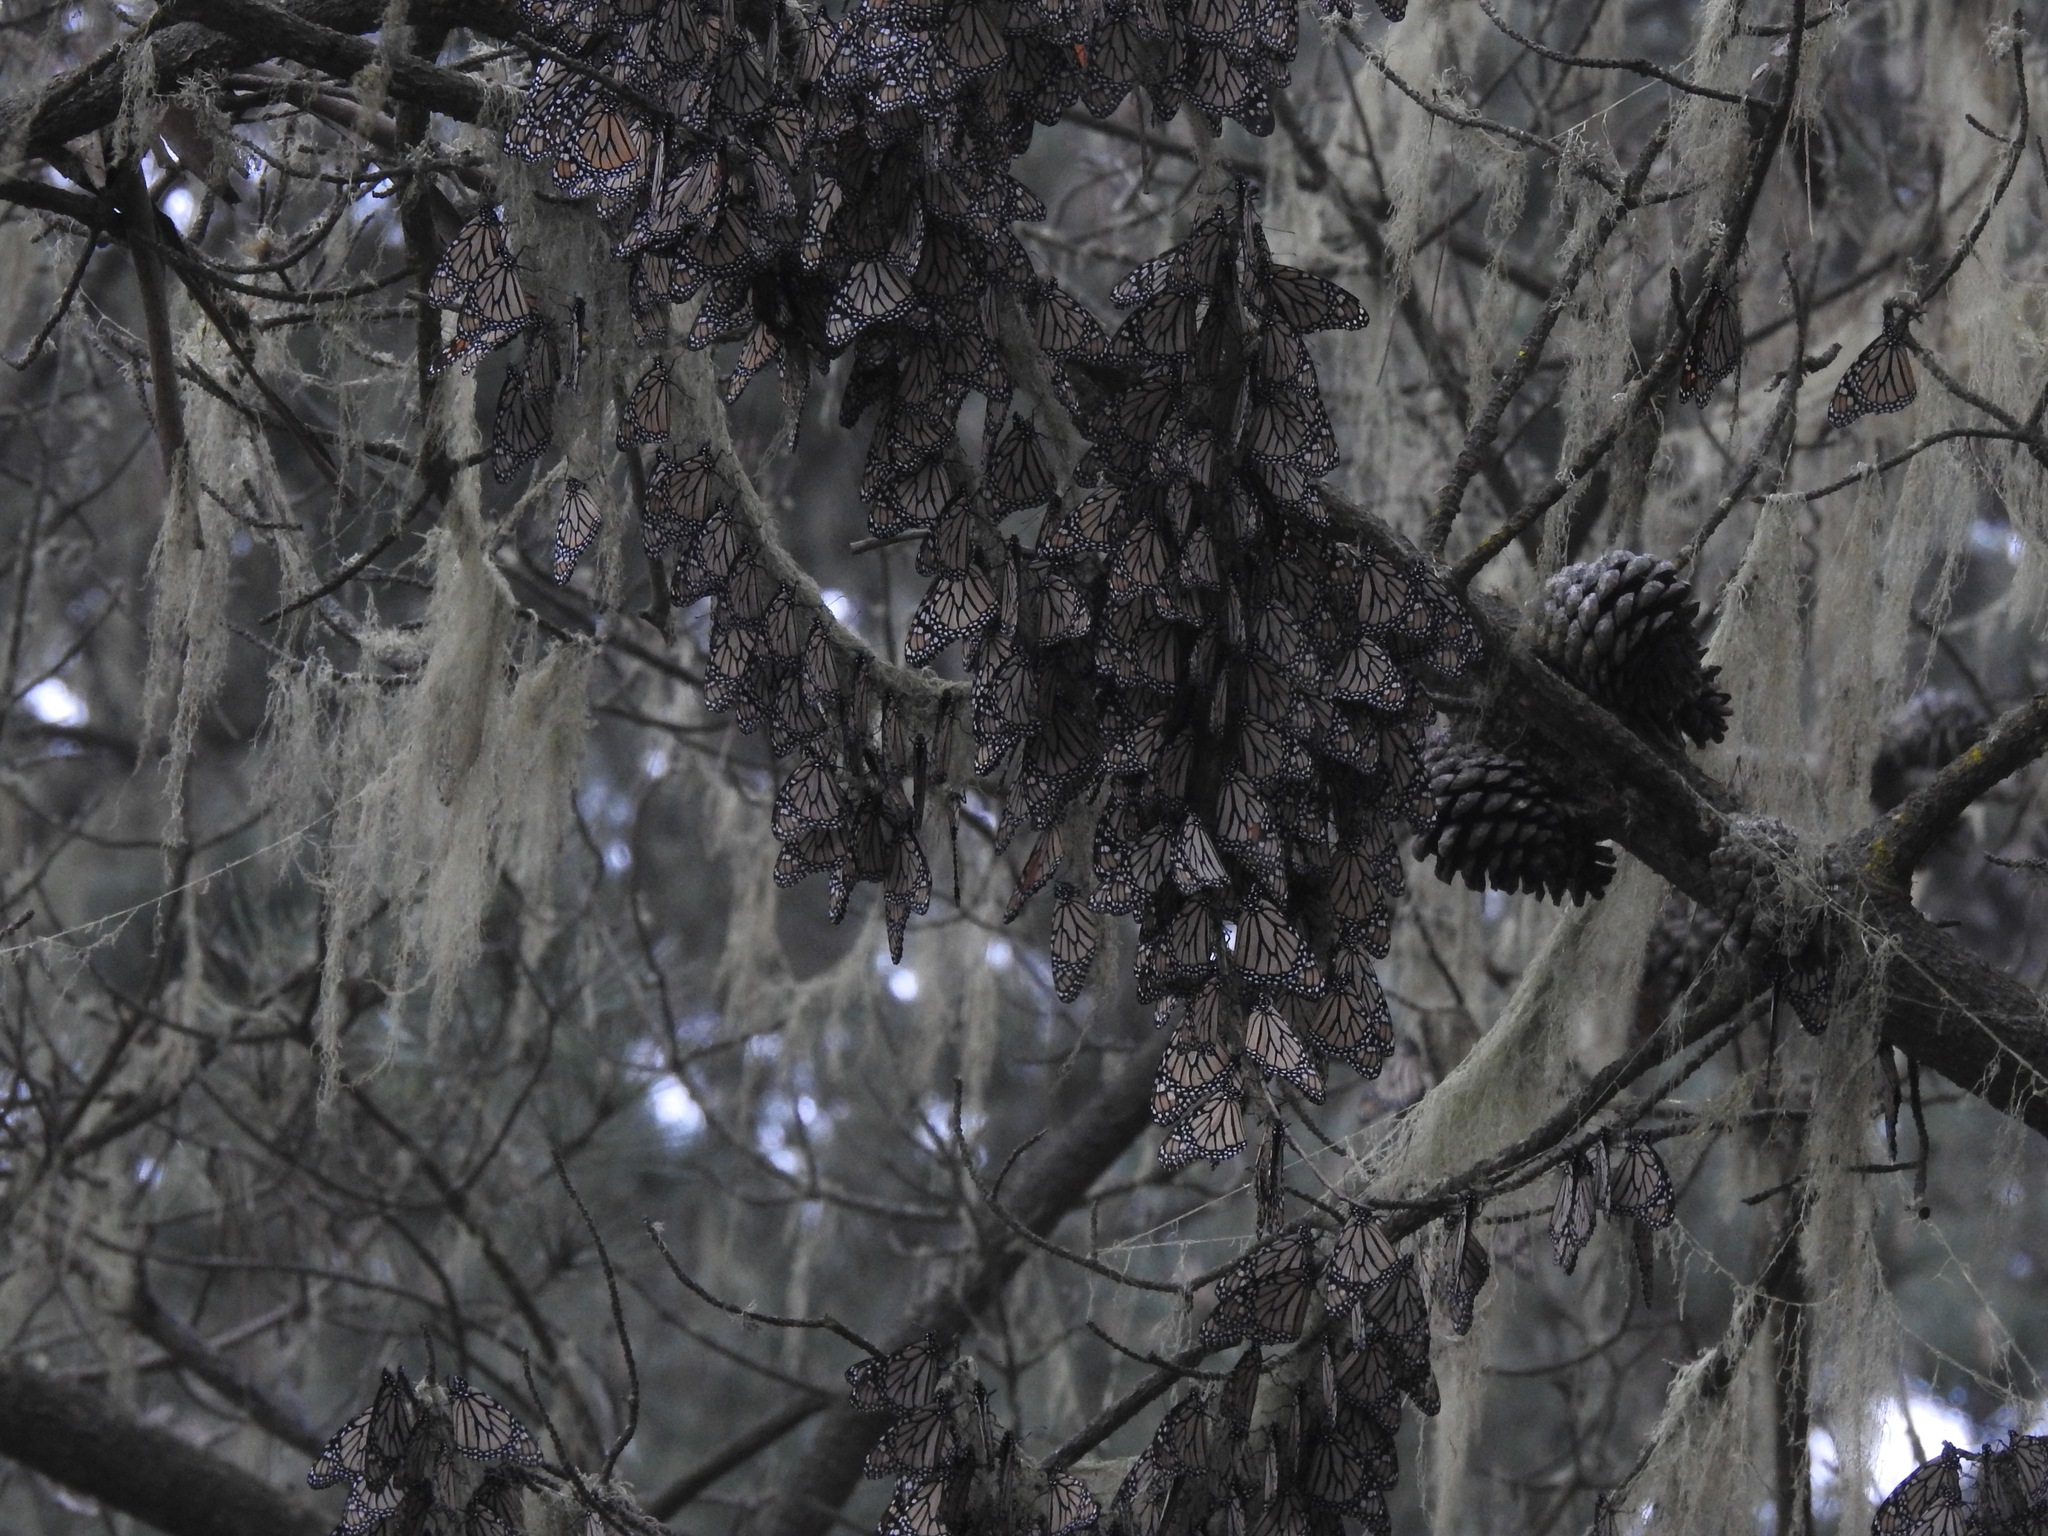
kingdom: Animalia
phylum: Arthropoda
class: Insecta
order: Lepidoptera
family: Nymphalidae
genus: Danaus
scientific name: Danaus plexippus
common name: Monarch
